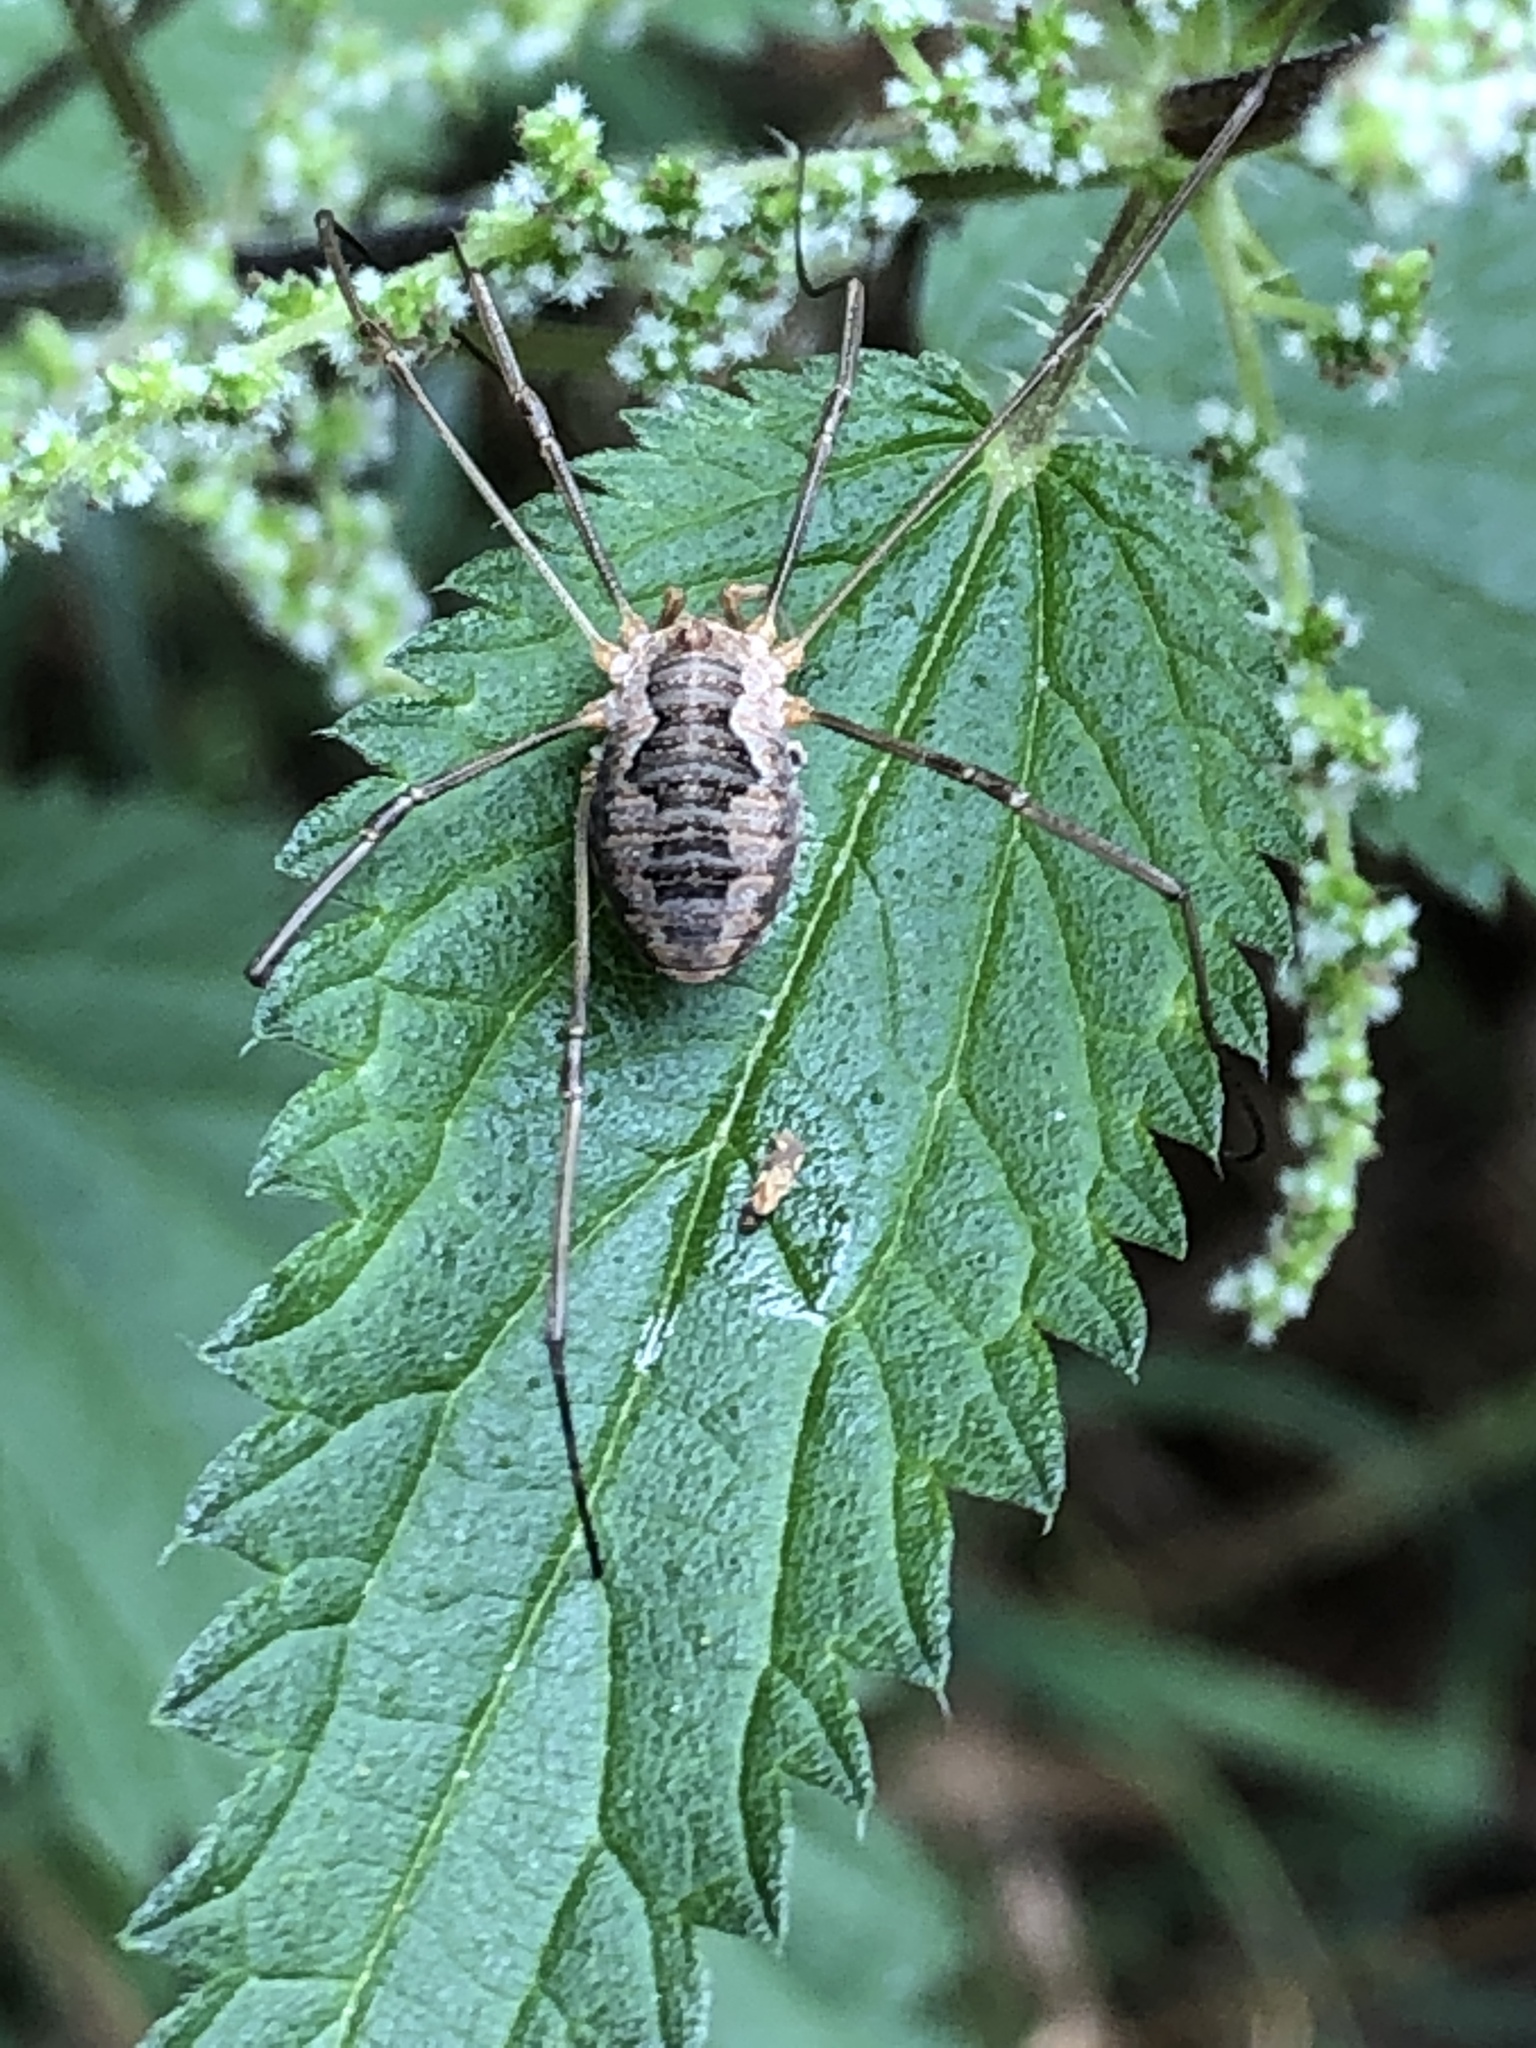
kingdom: Animalia
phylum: Arthropoda
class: Arachnida
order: Opiliones
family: Phalangiidae
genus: Phalangium
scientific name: Phalangium opilio
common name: Daddy longleg
